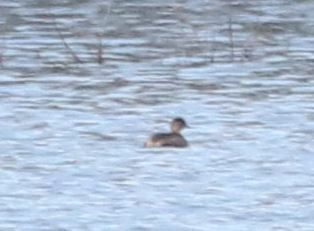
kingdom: Animalia
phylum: Chordata
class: Aves
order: Podicipediformes
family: Podicipedidae
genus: Tachybaptus
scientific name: Tachybaptus ruficollis
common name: Little grebe
